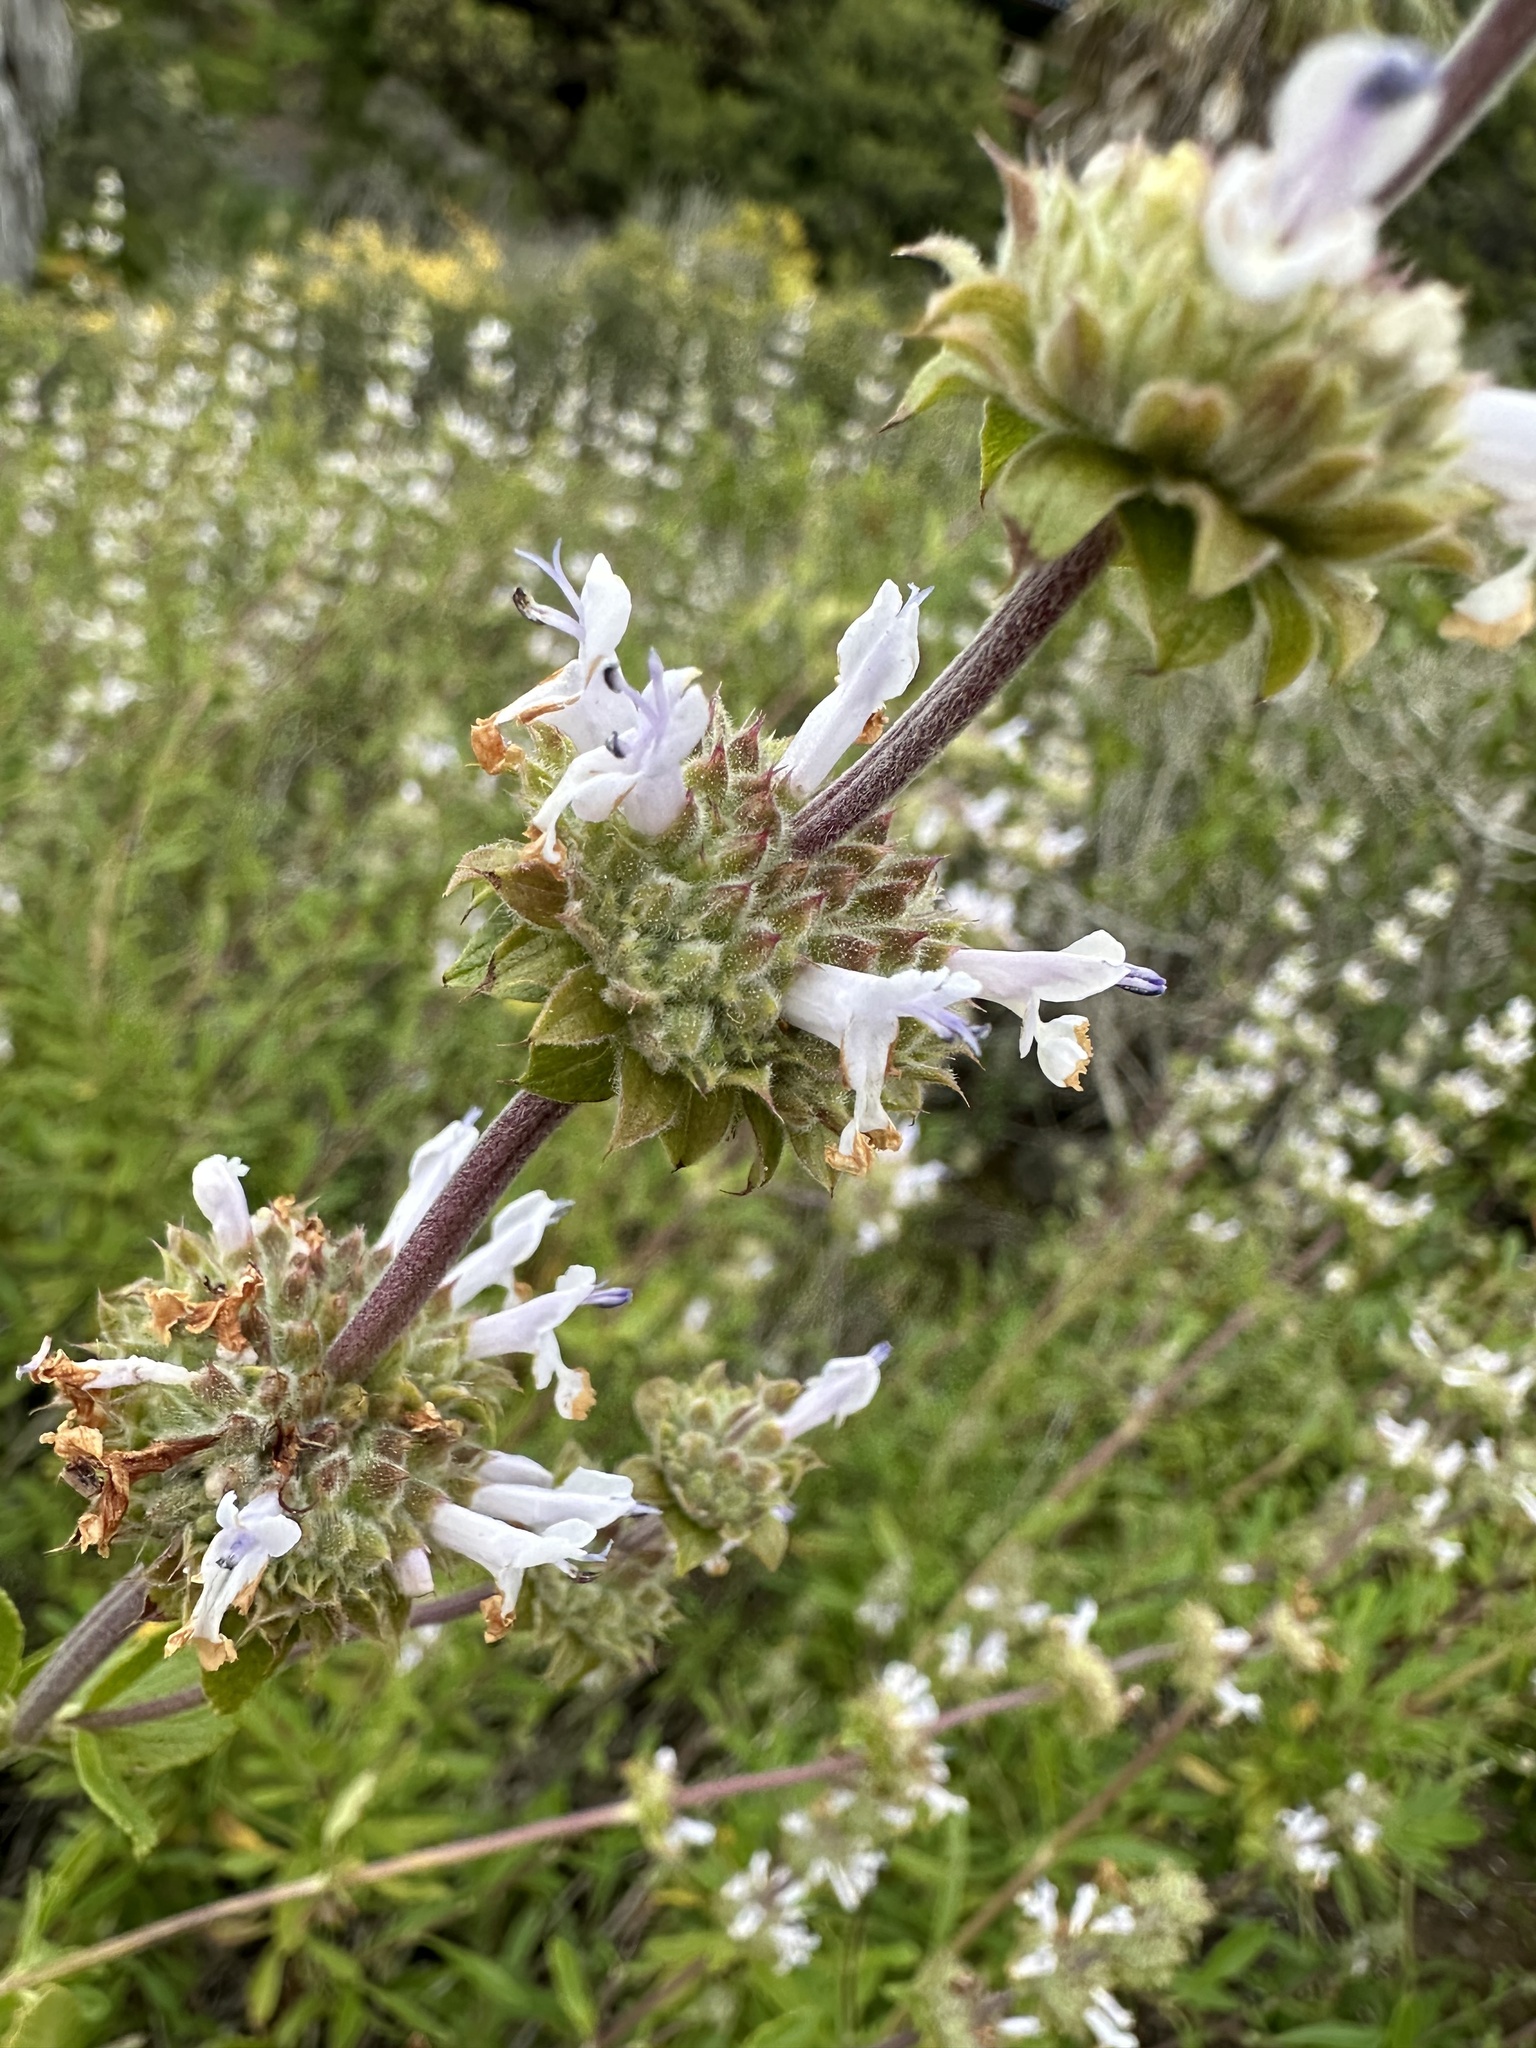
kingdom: Plantae
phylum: Tracheophyta
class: Magnoliopsida
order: Lamiales
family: Lamiaceae
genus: Salvia
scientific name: Salvia mellifera
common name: Black sage
